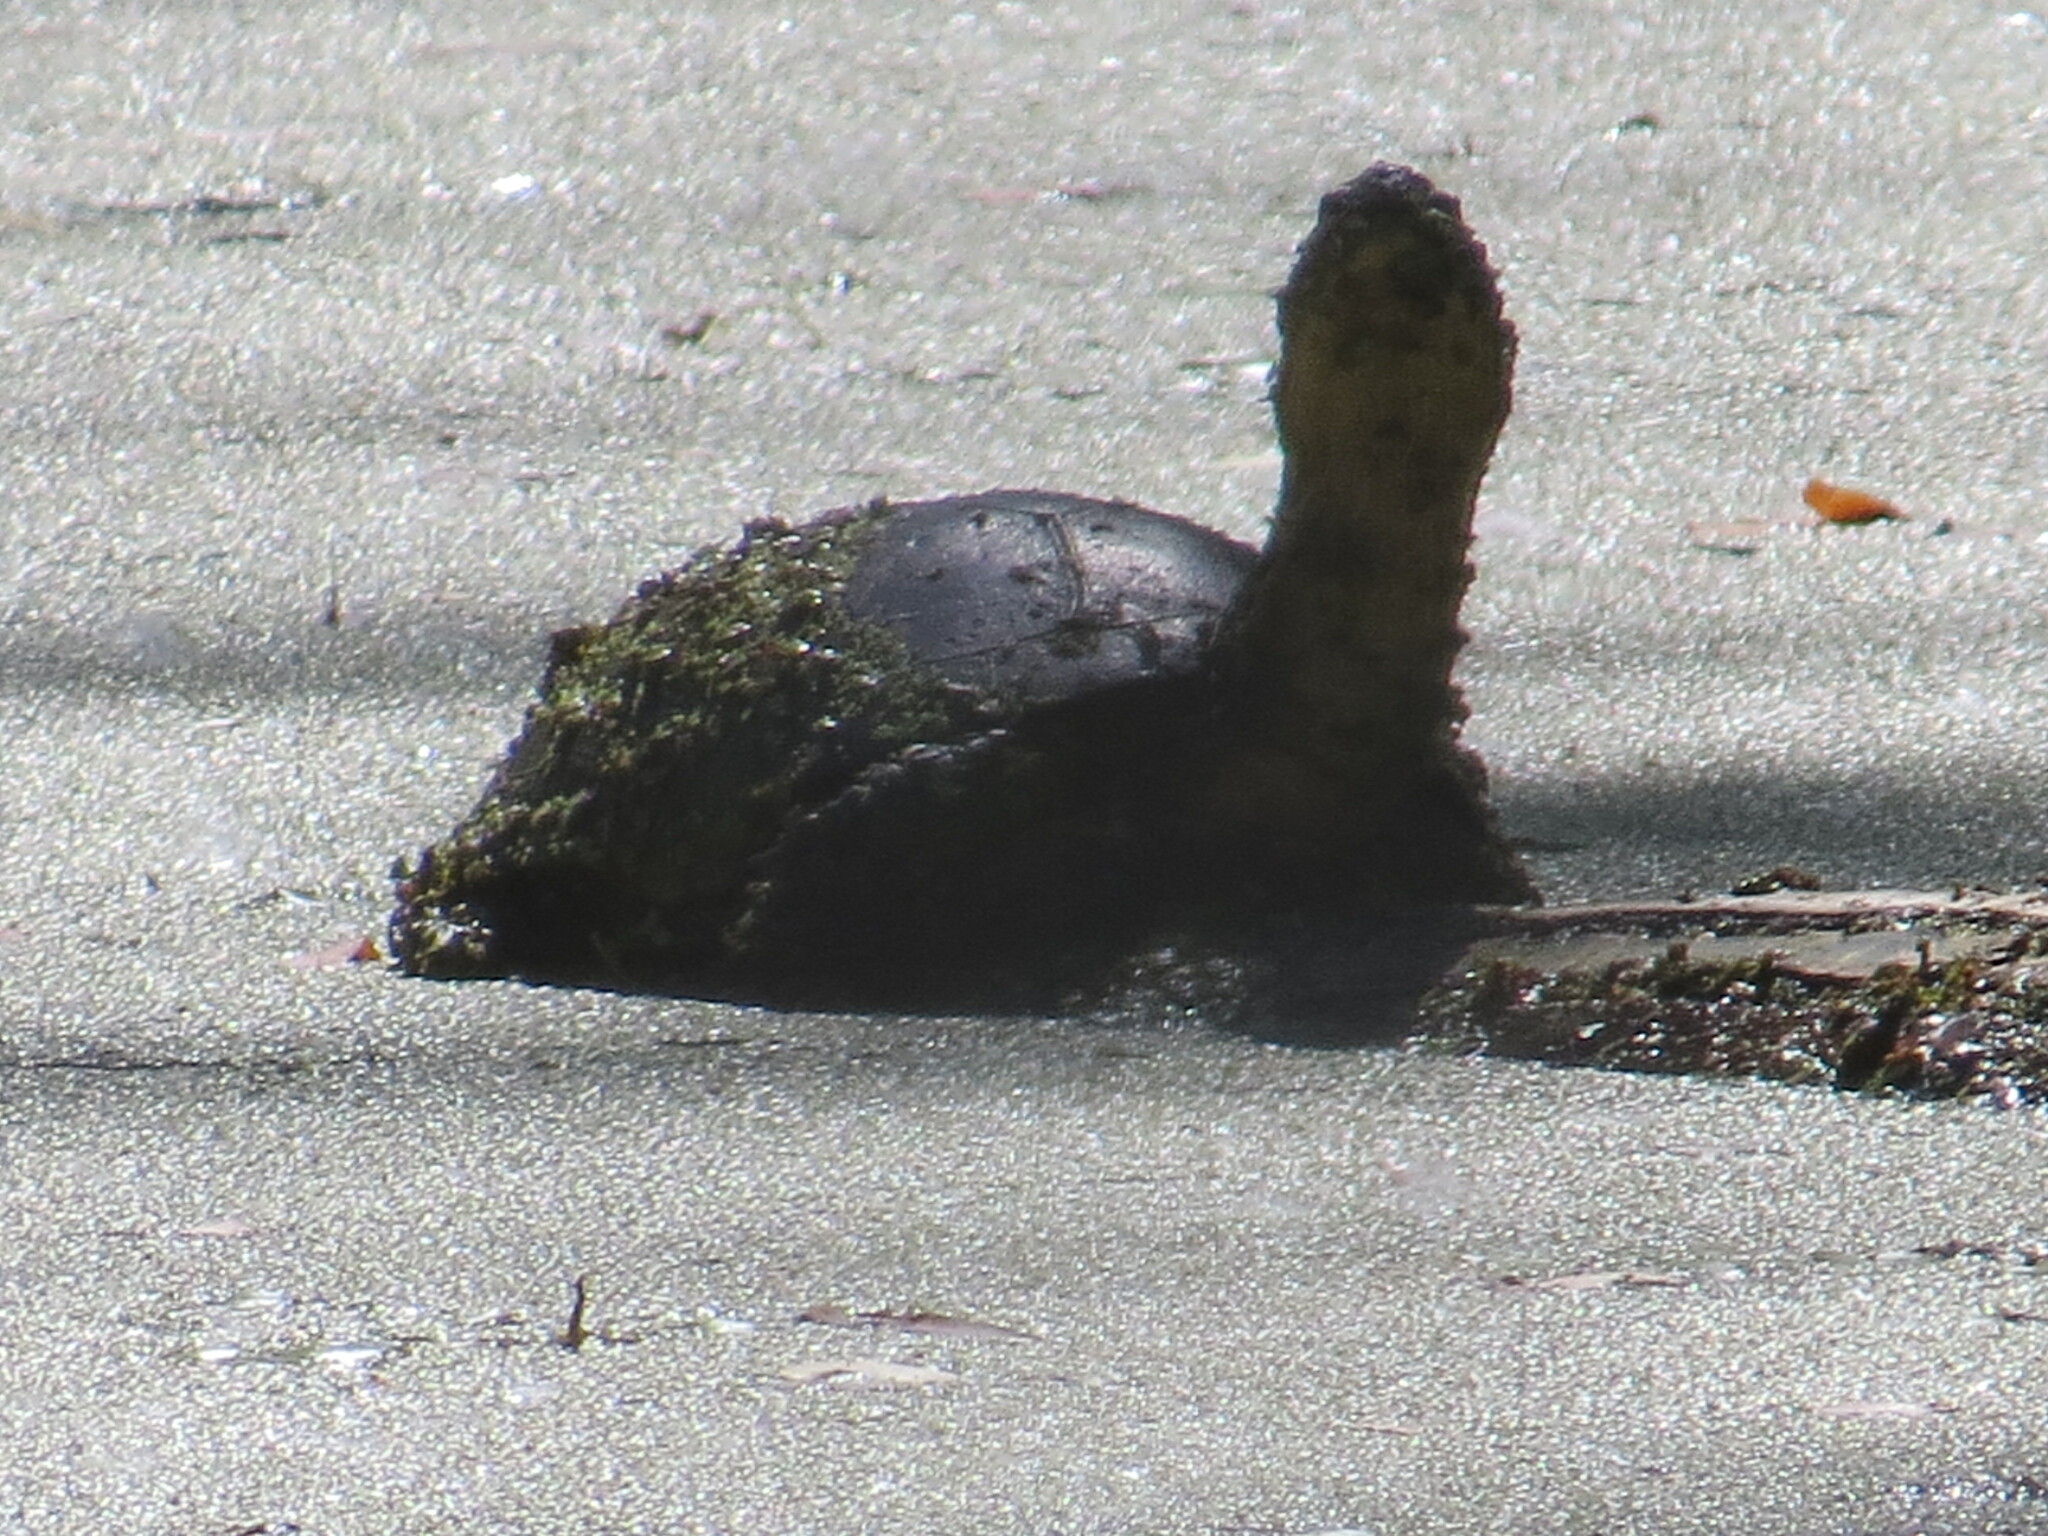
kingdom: Animalia
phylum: Chordata
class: Testudines
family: Emydidae
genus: Emys
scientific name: Emys blandingii
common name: Blanding's turtle
